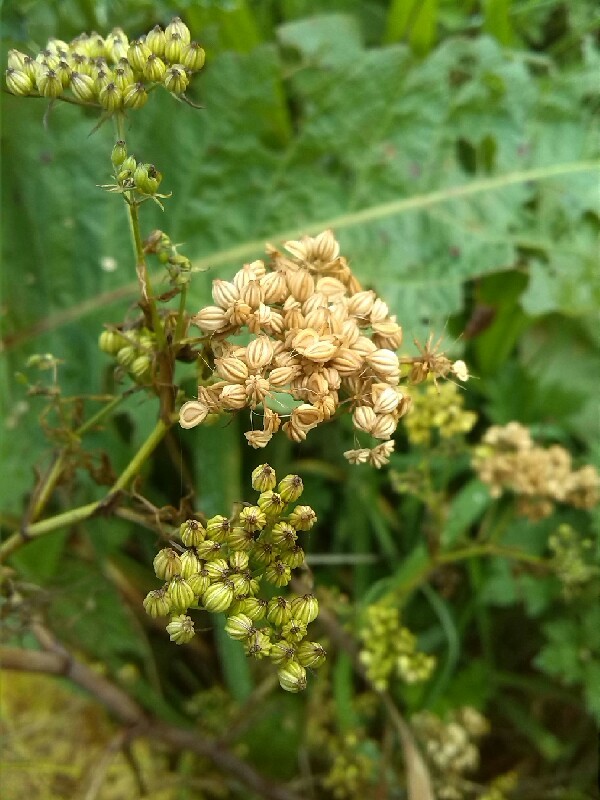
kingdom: Plantae
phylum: Tracheophyta
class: Magnoliopsida
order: Apiales
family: Apiaceae
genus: Aethusa
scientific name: Aethusa cynapium
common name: Fool's parsley
